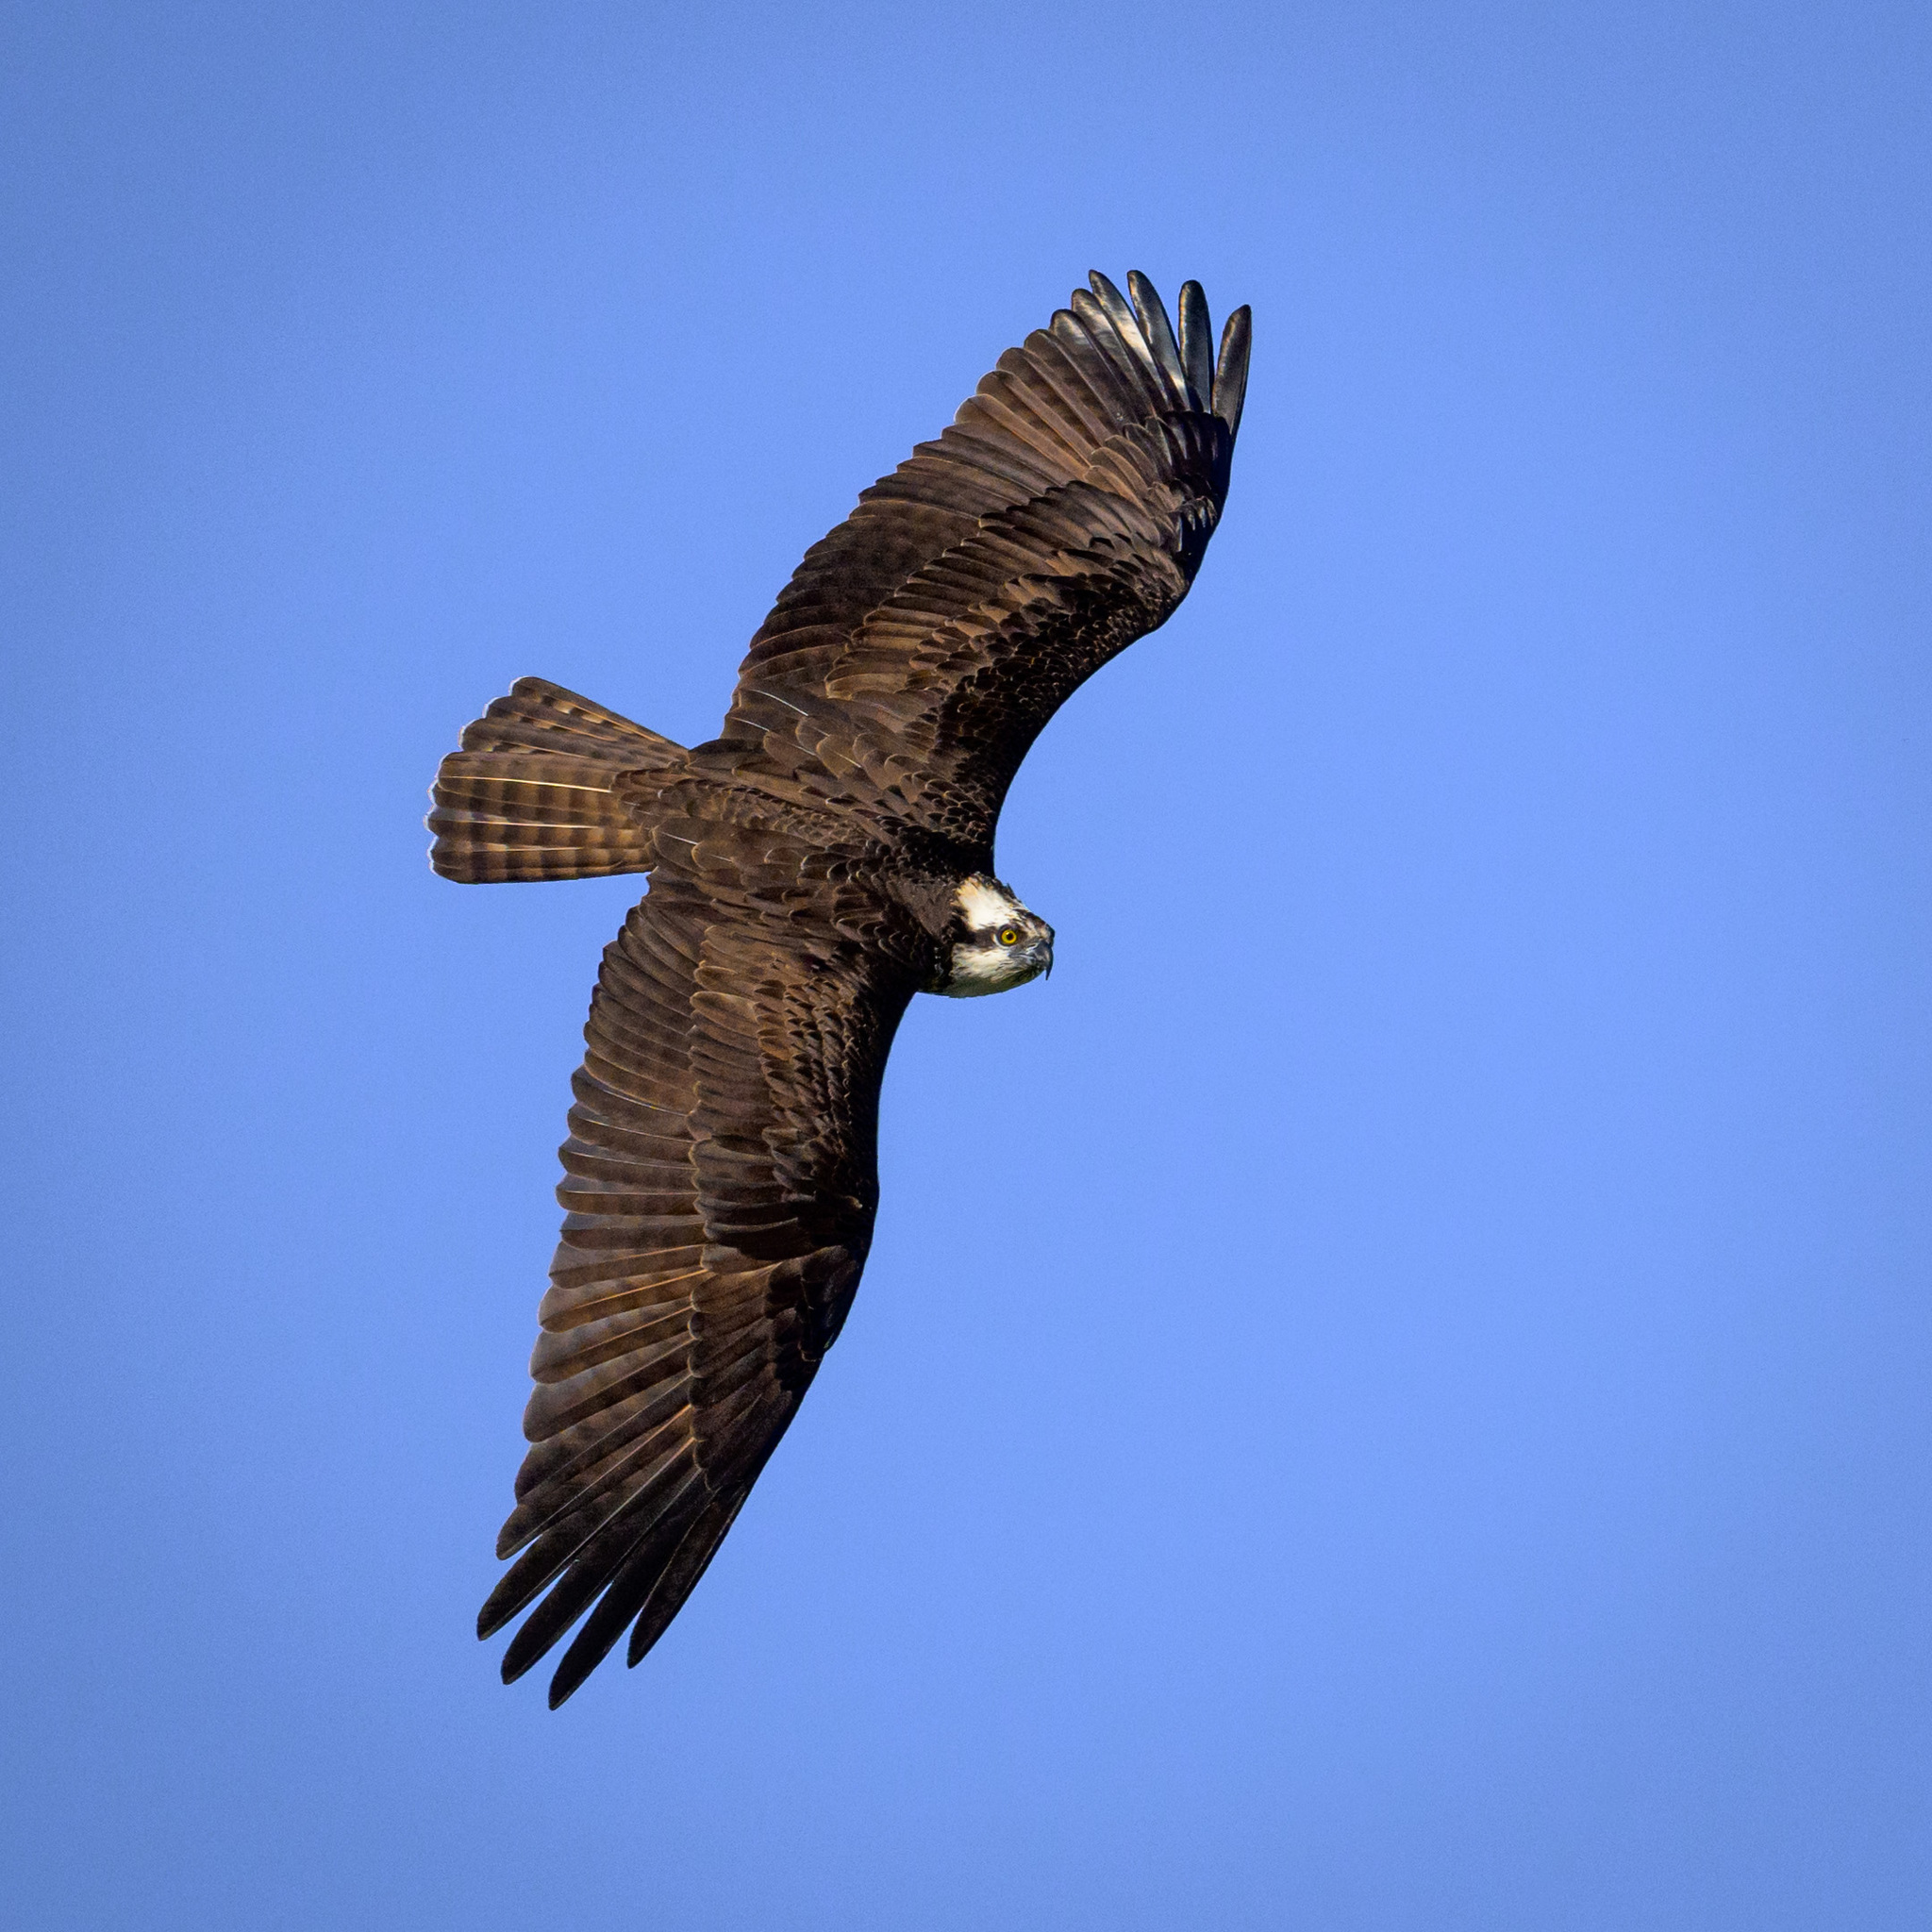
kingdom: Animalia
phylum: Chordata
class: Aves
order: Accipitriformes
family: Pandionidae
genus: Pandion
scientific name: Pandion haliaetus
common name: Osprey
